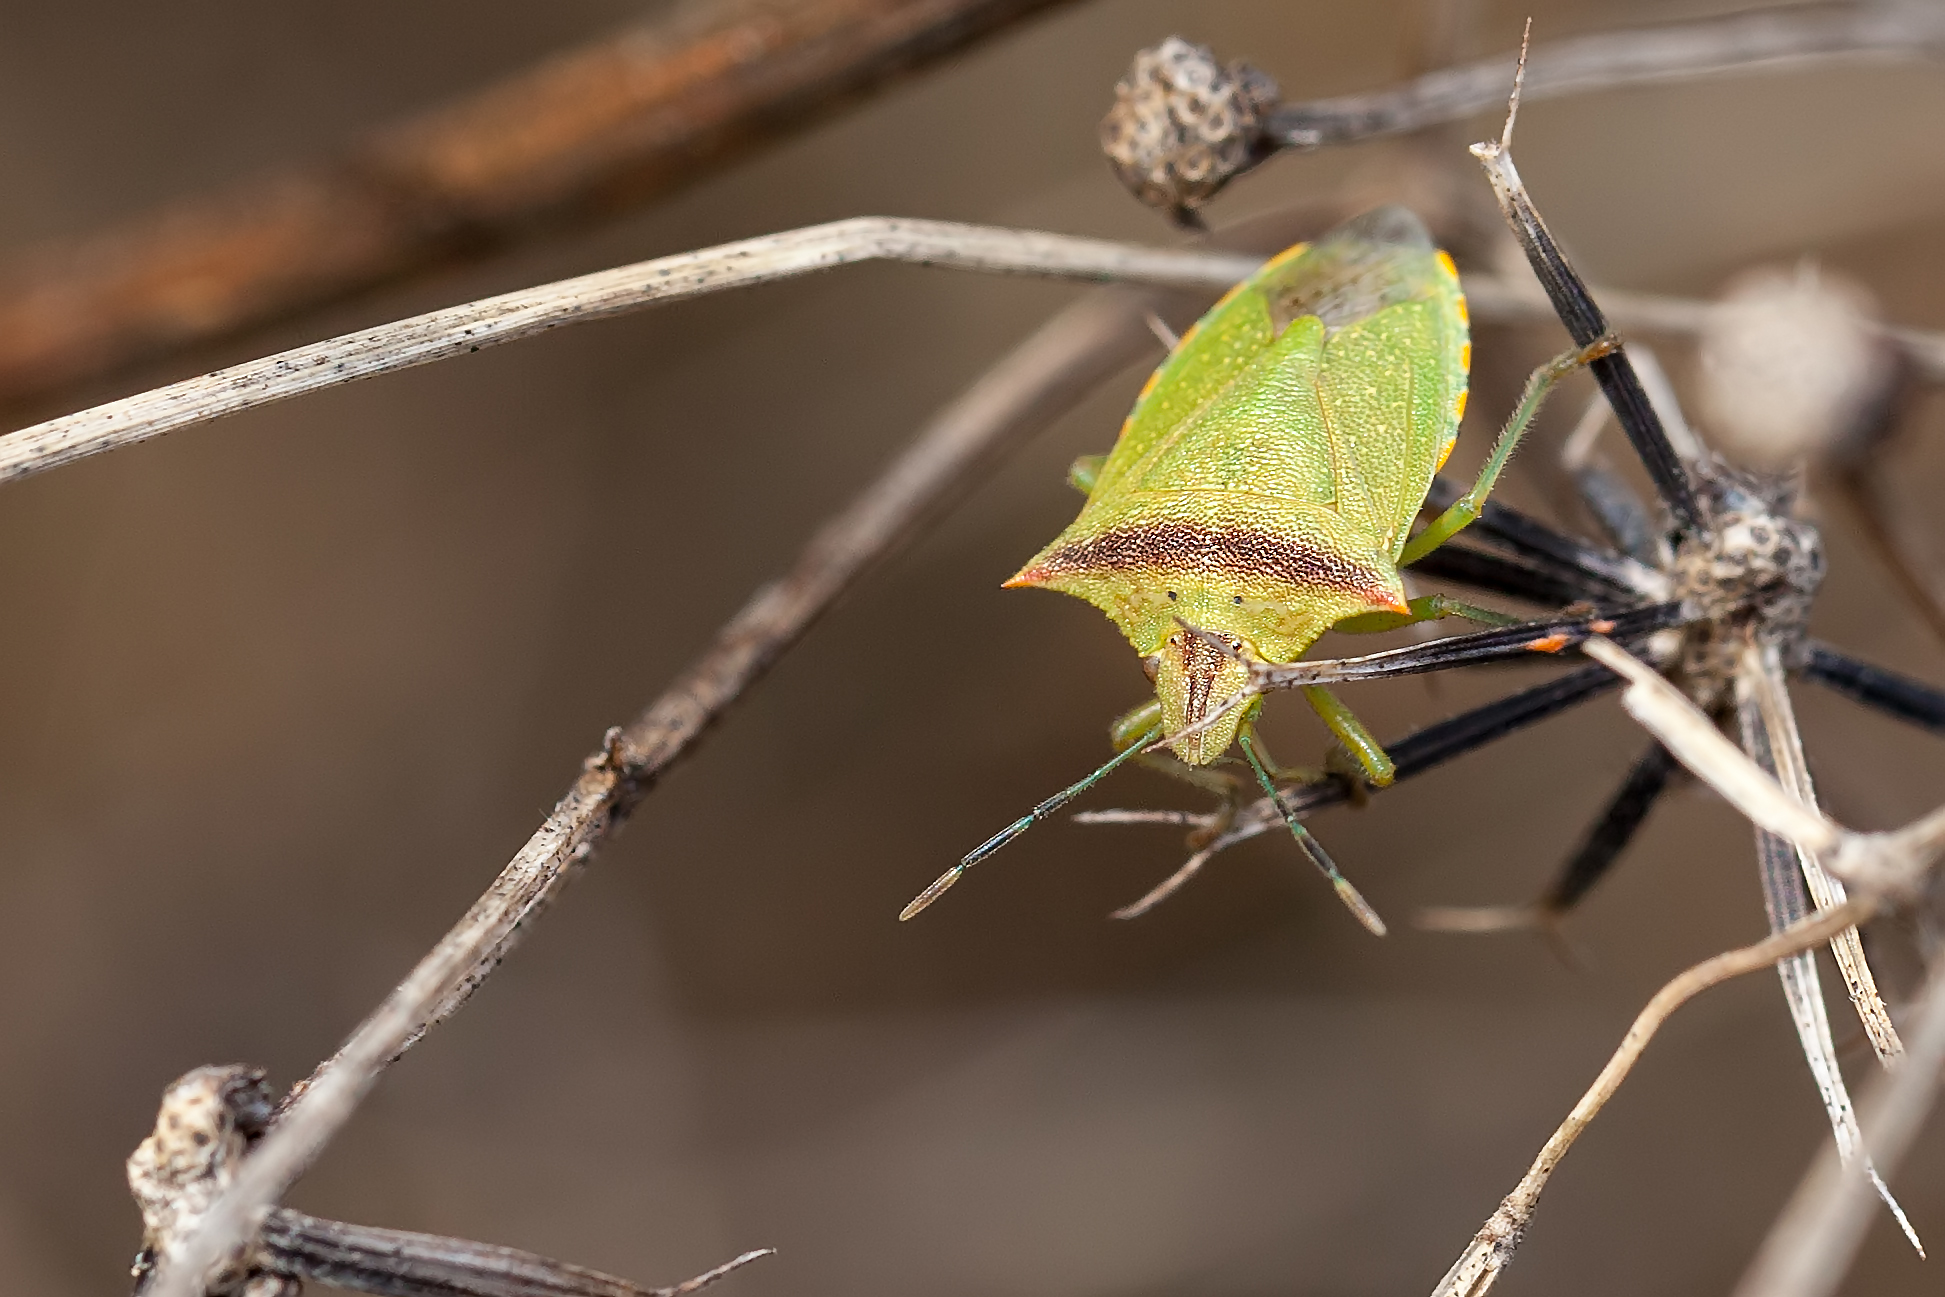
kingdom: Animalia
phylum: Arthropoda
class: Insecta
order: Hemiptera
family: Pentatomidae
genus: Thyanta
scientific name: Thyanta perditor
